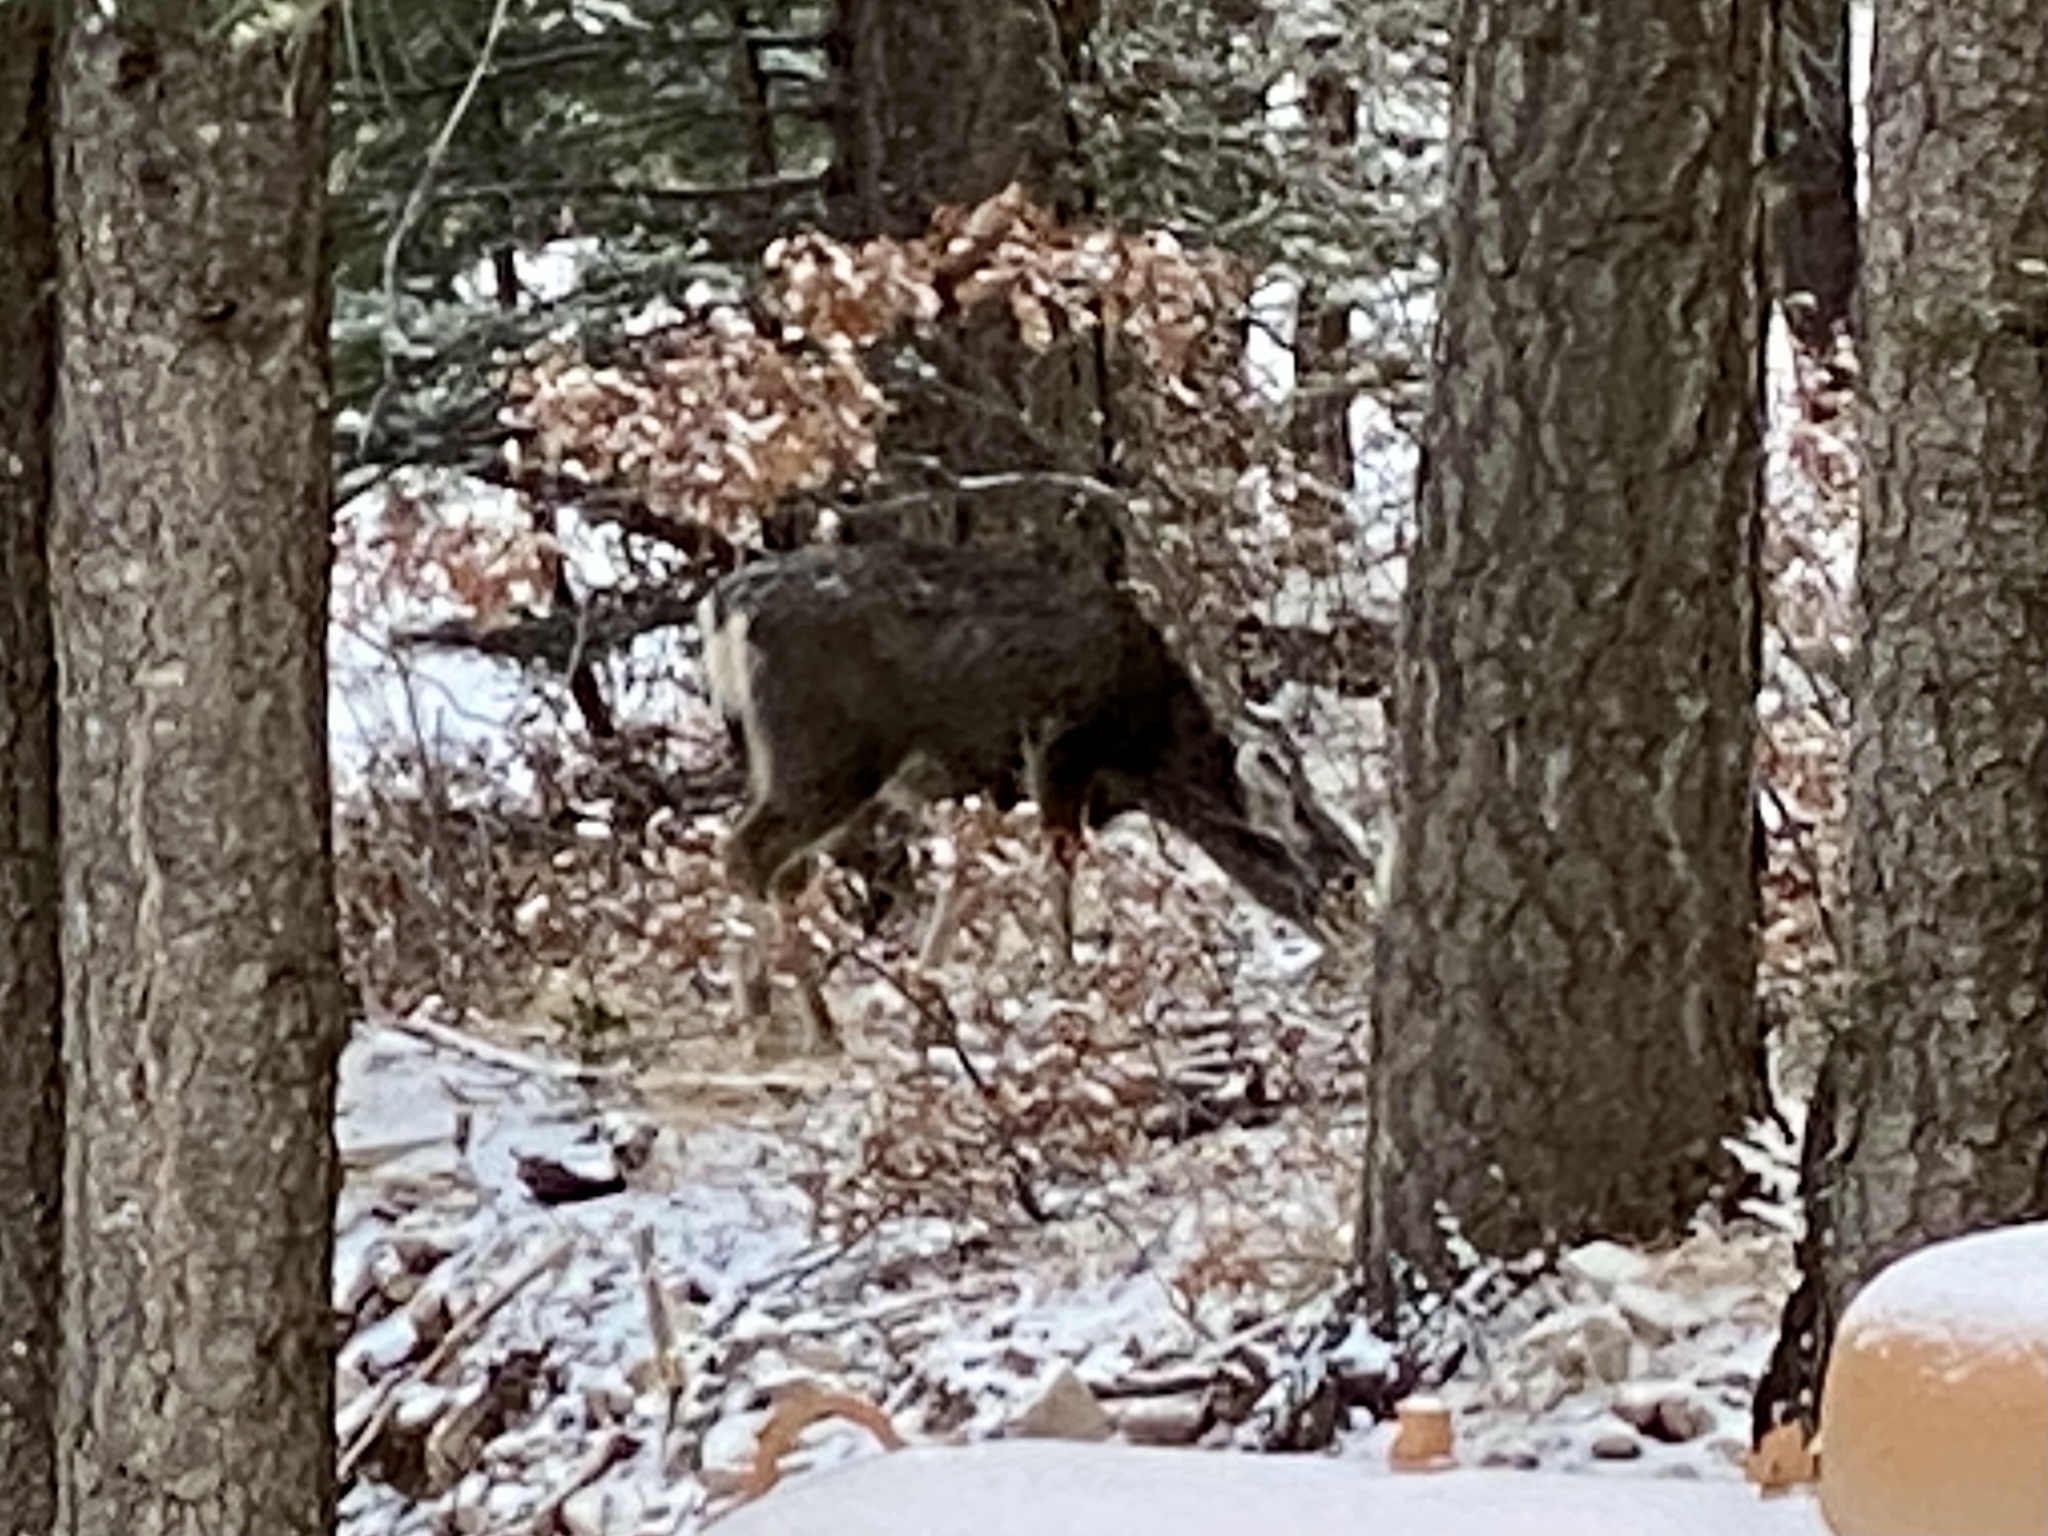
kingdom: Animalia
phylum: Chordata
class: Mammalia
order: Artiodactyla
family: Cervidae
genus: Odocoileus
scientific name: Odocoileus hemionus
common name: Mule deer
